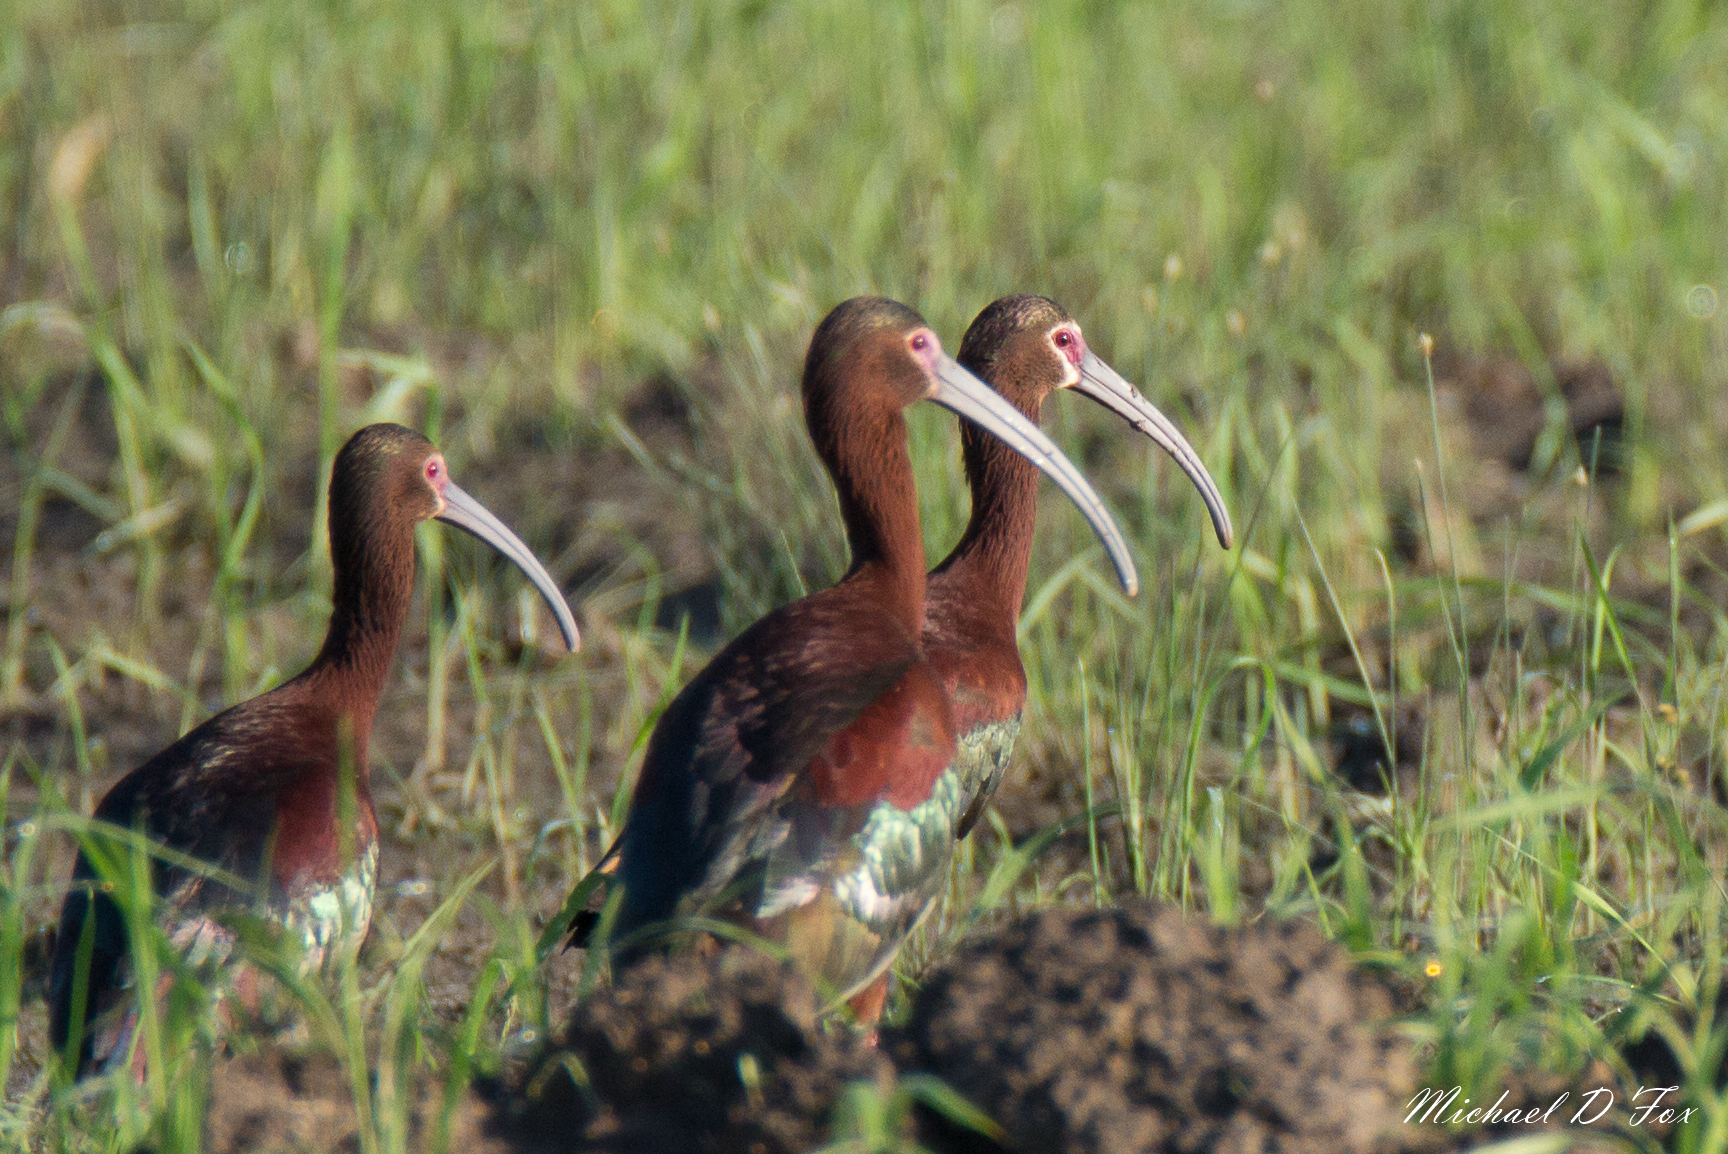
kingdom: Animalia
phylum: Chordata
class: Aves
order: Pelecaniformes
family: Threskiornithidae
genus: Plegadis
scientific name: Plegadis chihi
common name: White-faced ibis
